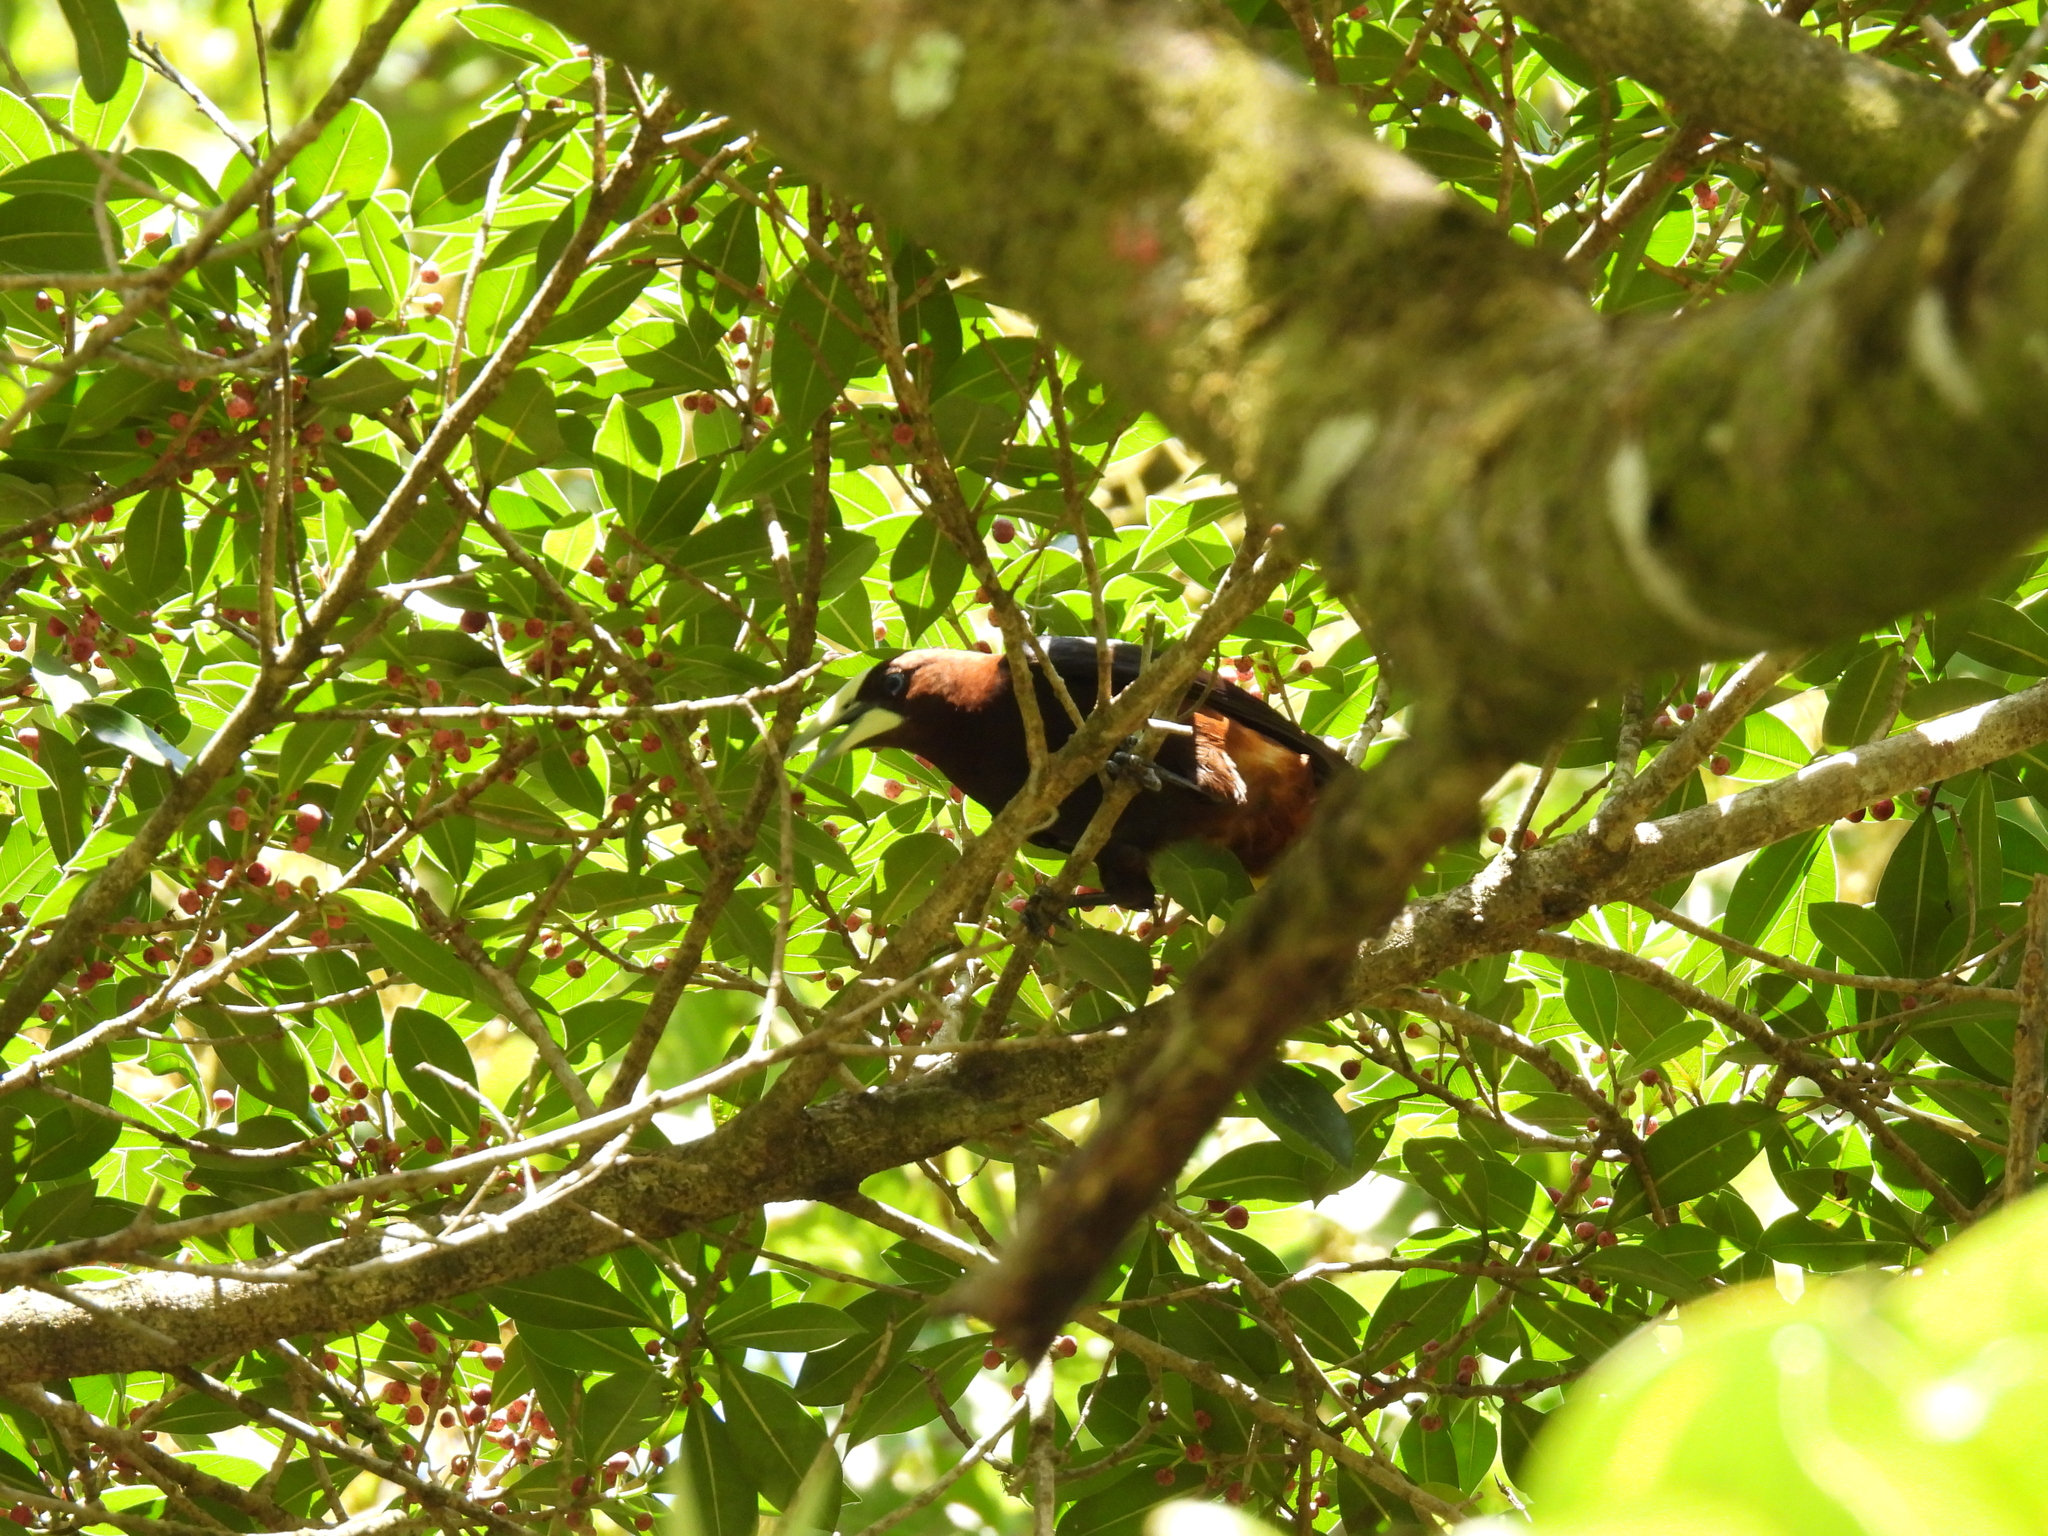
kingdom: Animalia
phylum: Chordata
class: Aves
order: Passeriformes
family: Icteridae
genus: Psarocolius
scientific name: Psarocolius wagleri
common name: Chestnut-headed oropendola
